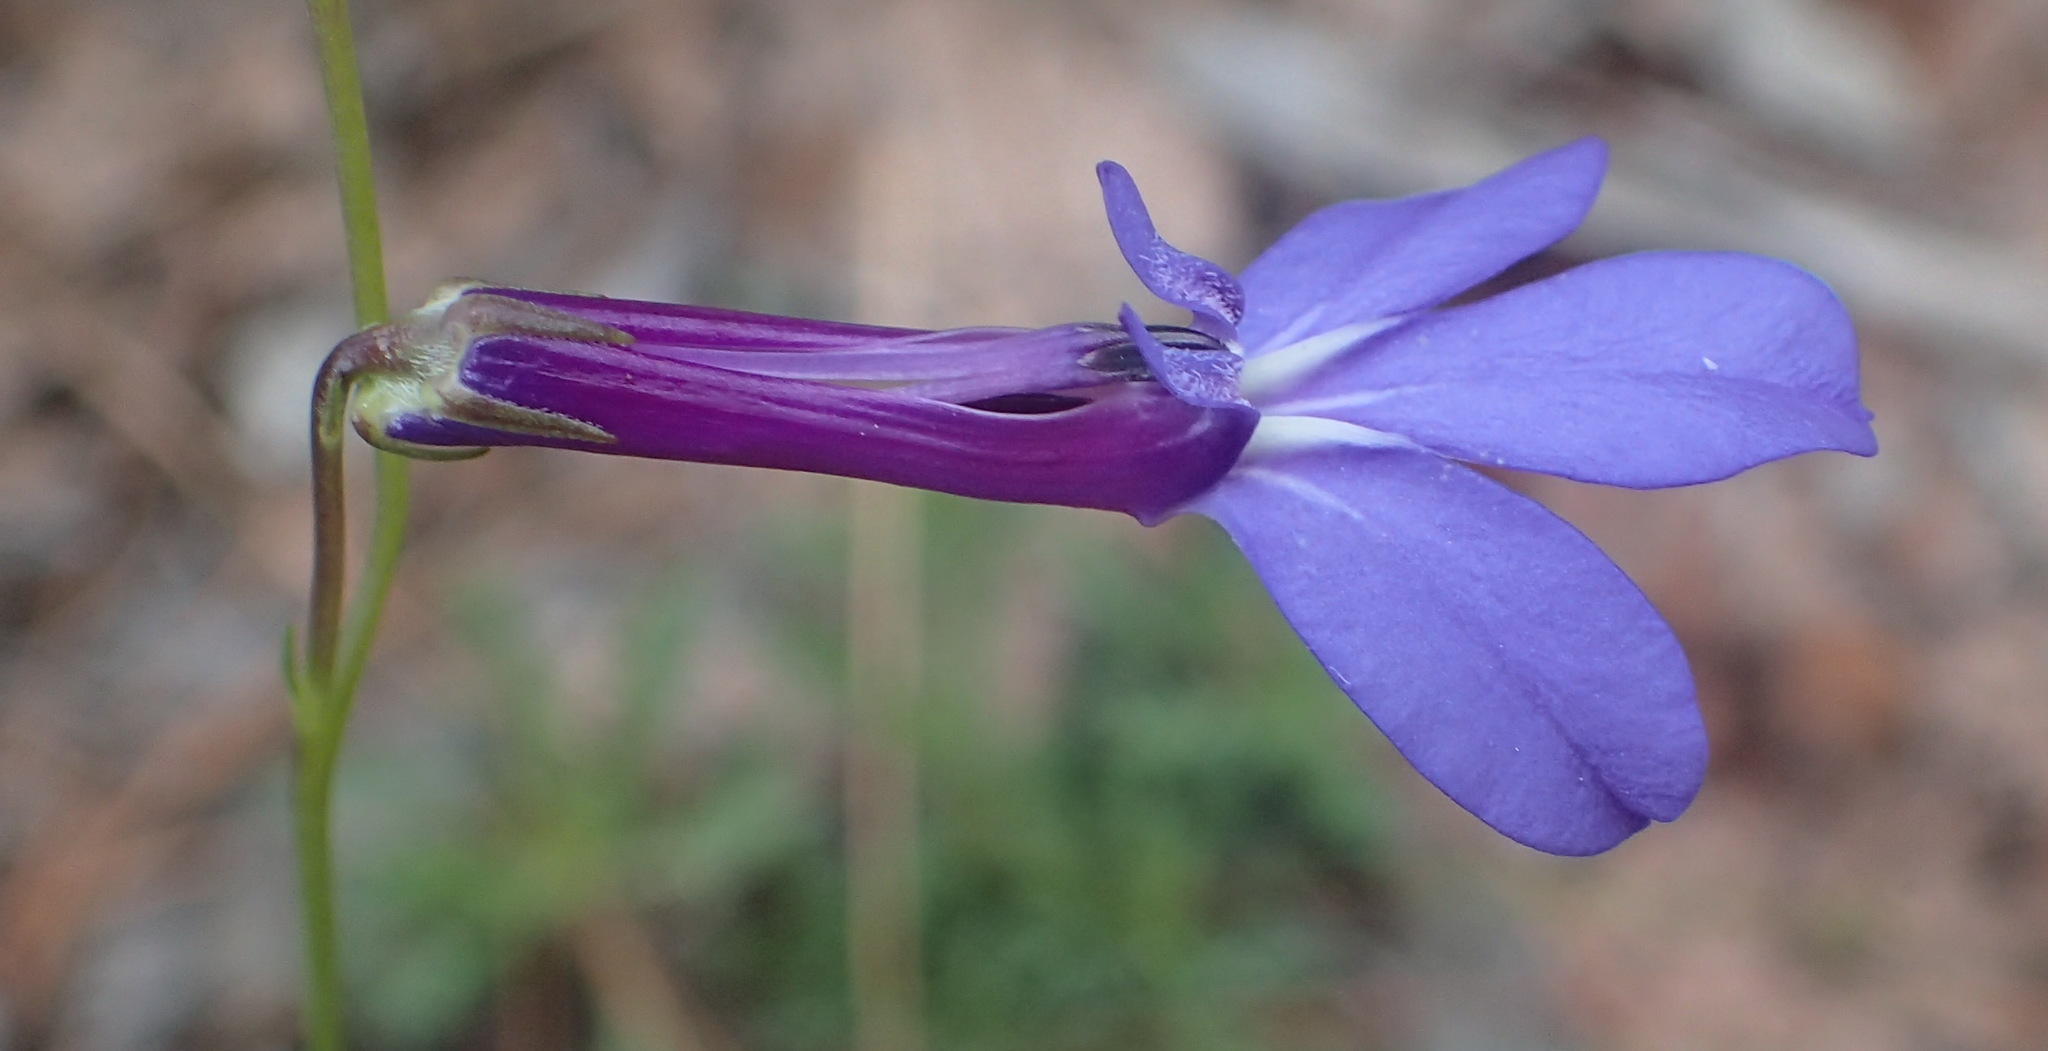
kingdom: Plantae
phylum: Tracheophyta
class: Magnoliopsida
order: Asterales
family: Campanulaceae
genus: Lobelia
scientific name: Lobelia tomentosa
